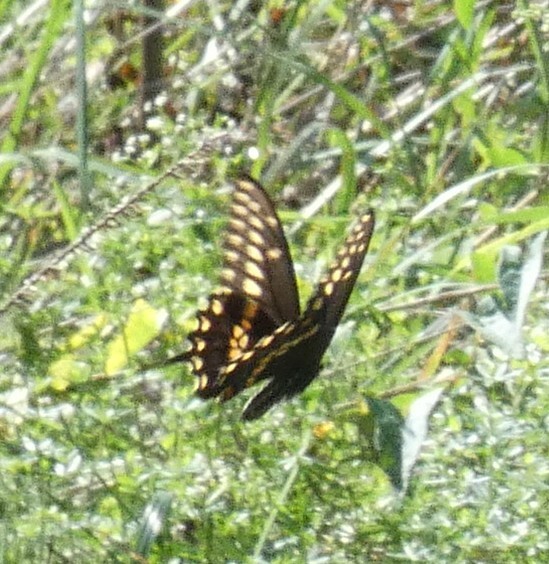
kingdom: Animalia
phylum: Arthropoda
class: Insecta
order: Lepidoptera
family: Papilionidae
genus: Papilio
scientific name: Papilio polyxenes
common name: Black swallowtail
